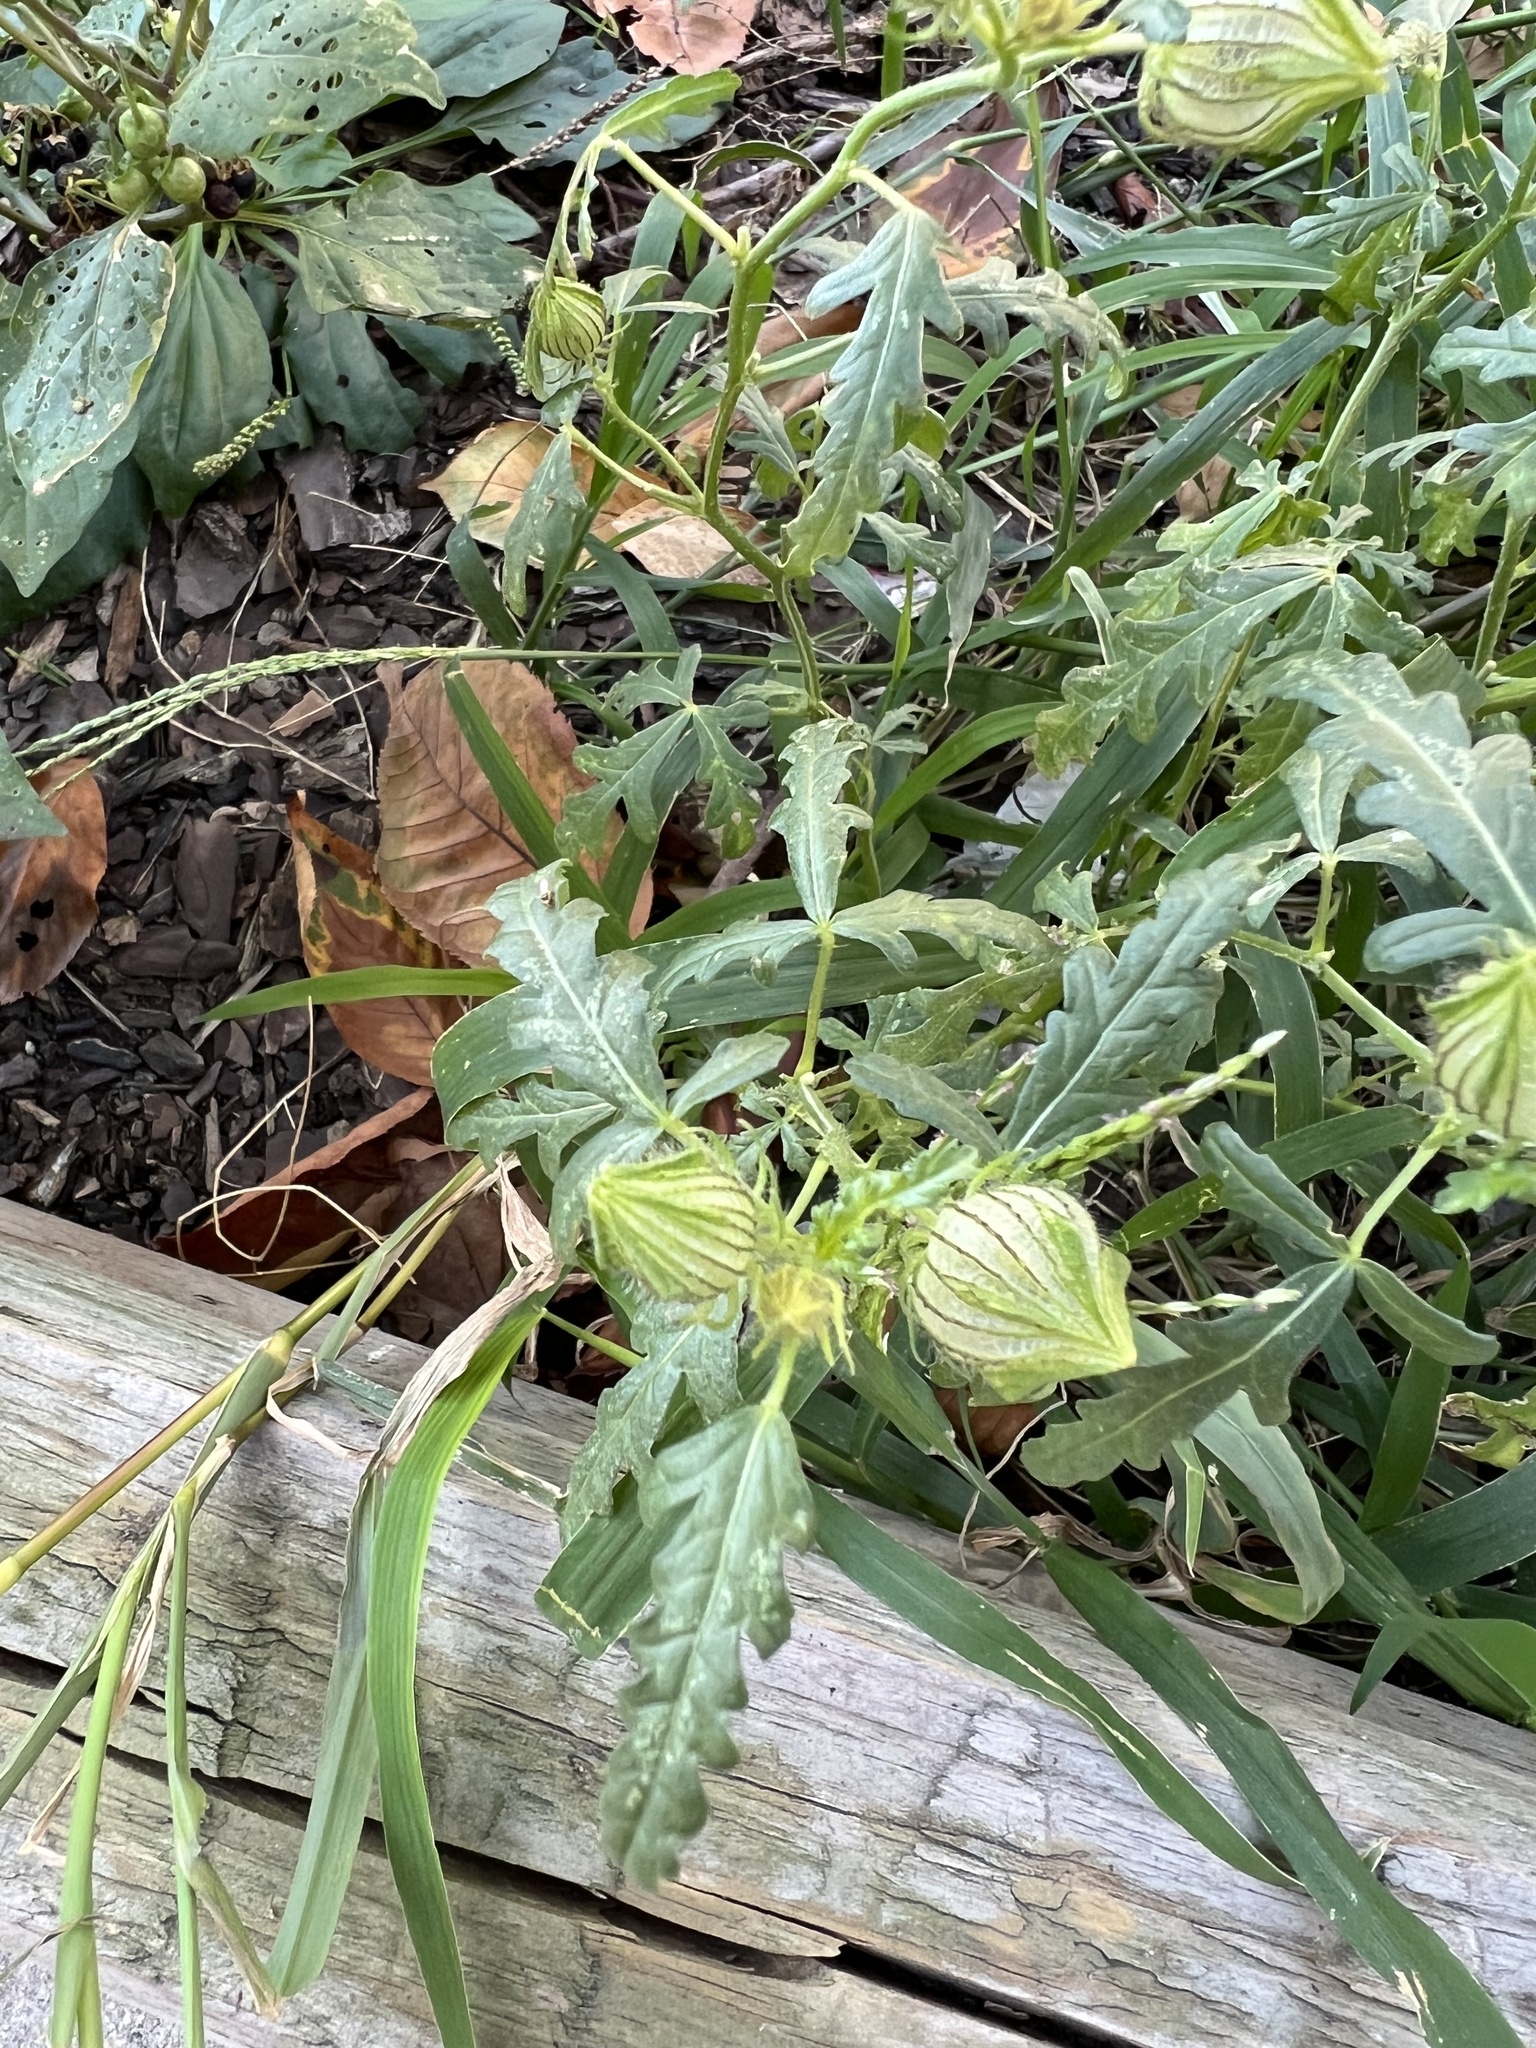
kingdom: Plantae
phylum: Tracheophyta
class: Magnoliopsida
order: Malvales
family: Malvaceae
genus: Hibiscus
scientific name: Hibiscus trionum
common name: Bladder ketmia
